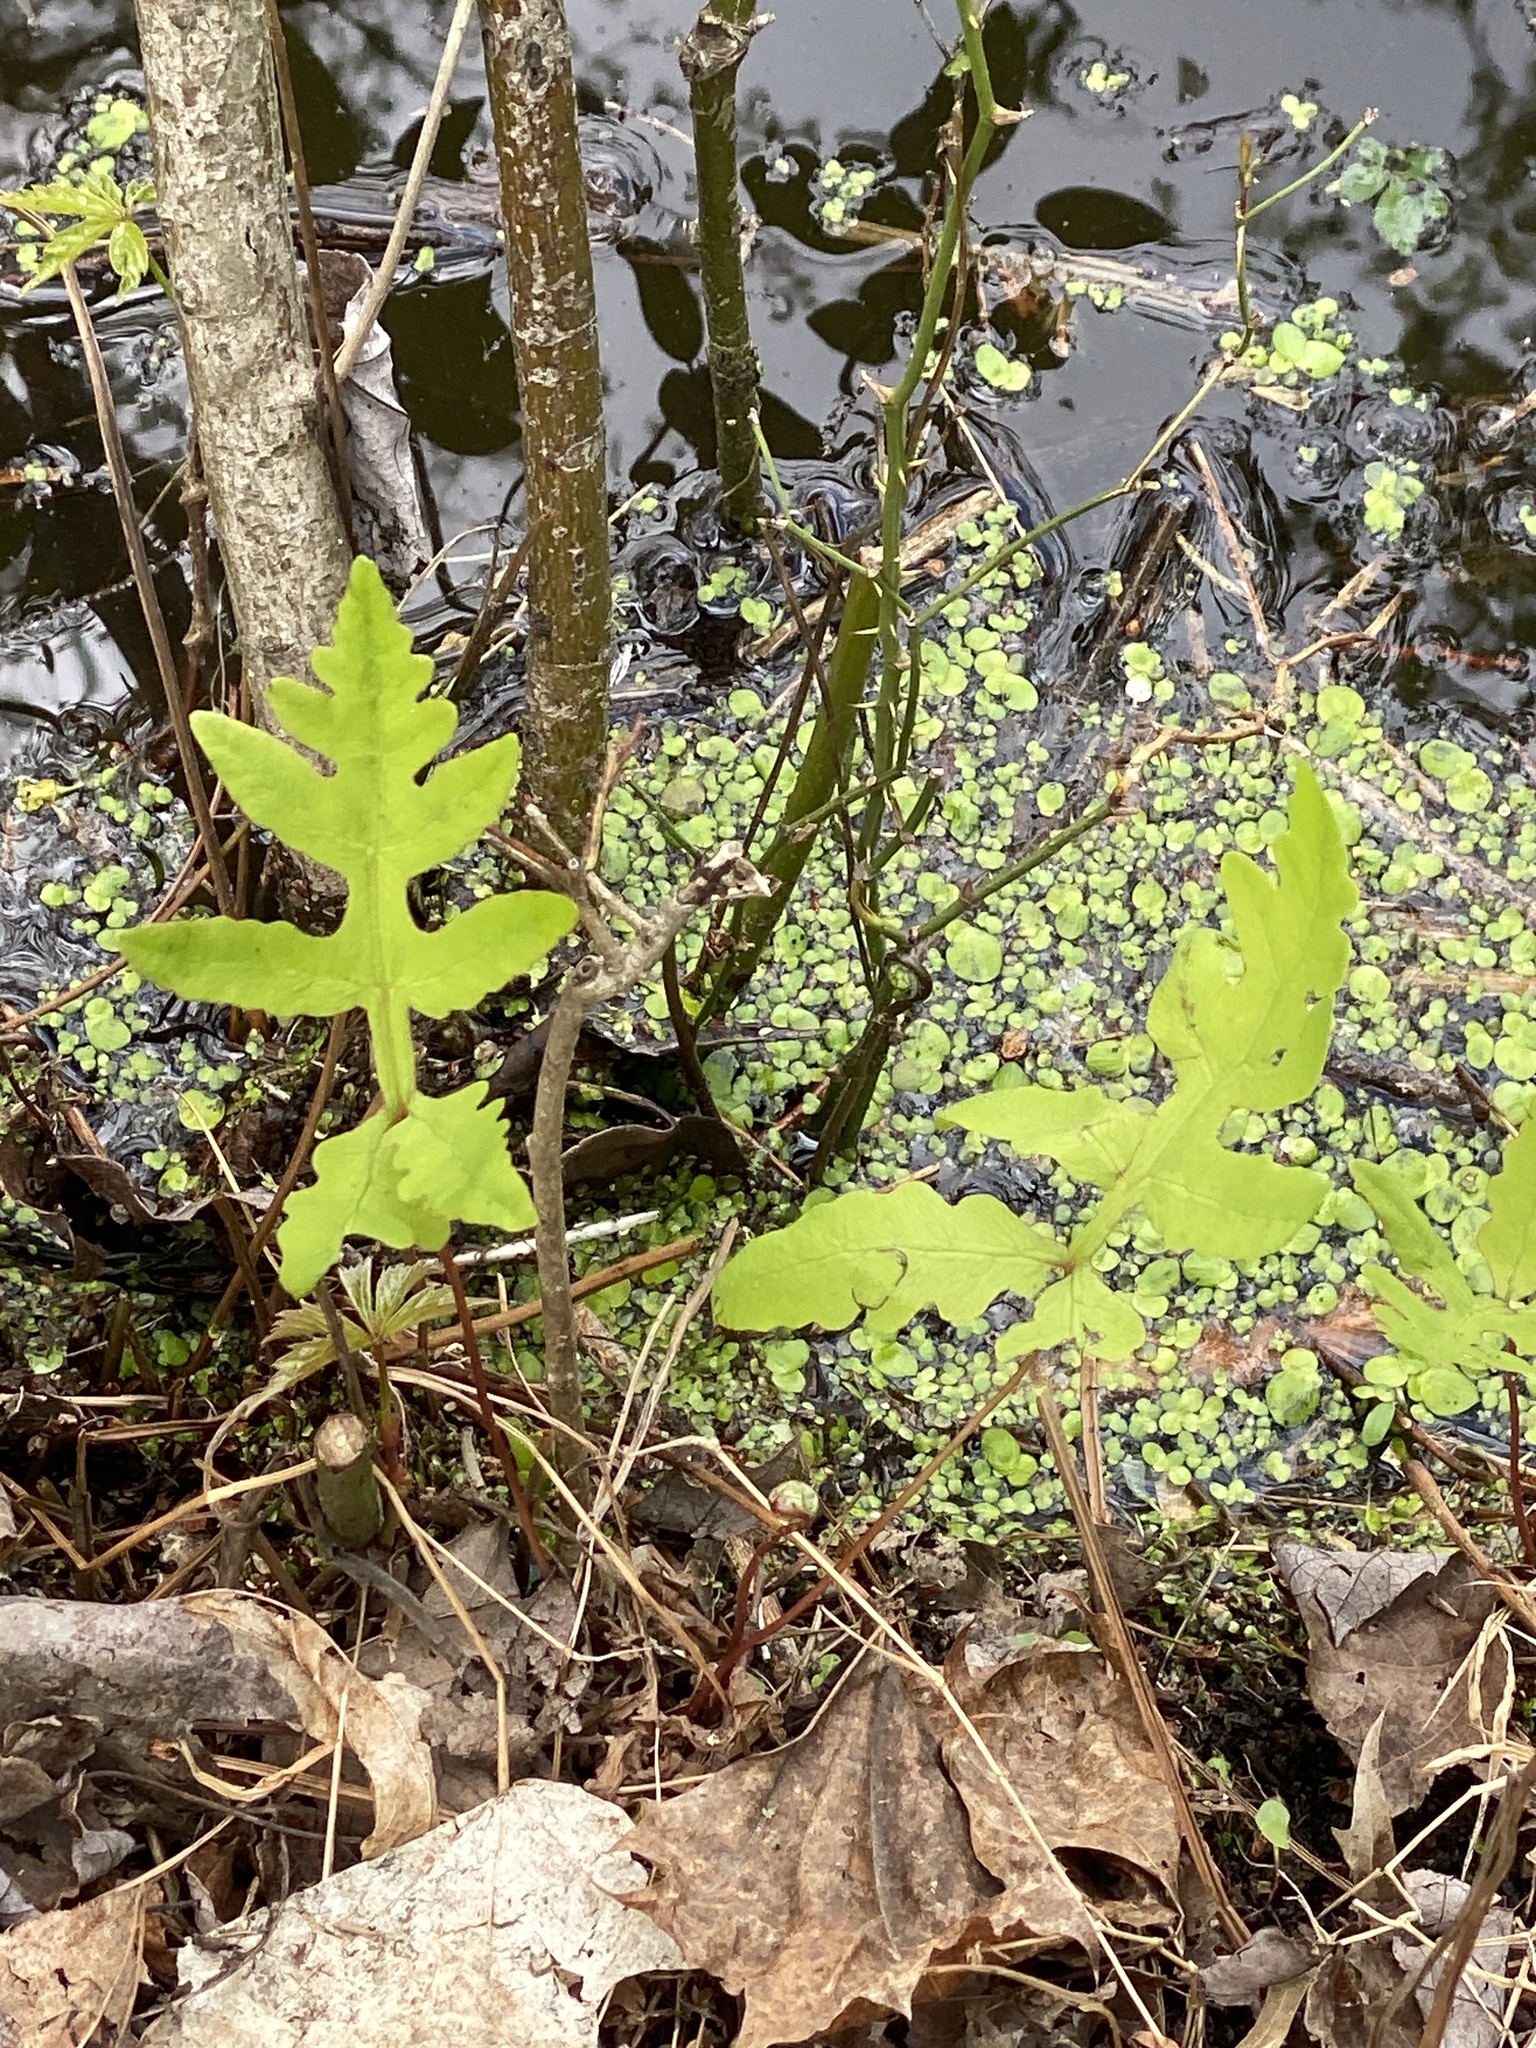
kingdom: Plantae
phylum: Tracheophyta
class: Polypodiopsida
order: Polypodiales
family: Onocleaceae
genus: Onoclea
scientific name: Onoclea sensibilis
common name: Sensitive fern
